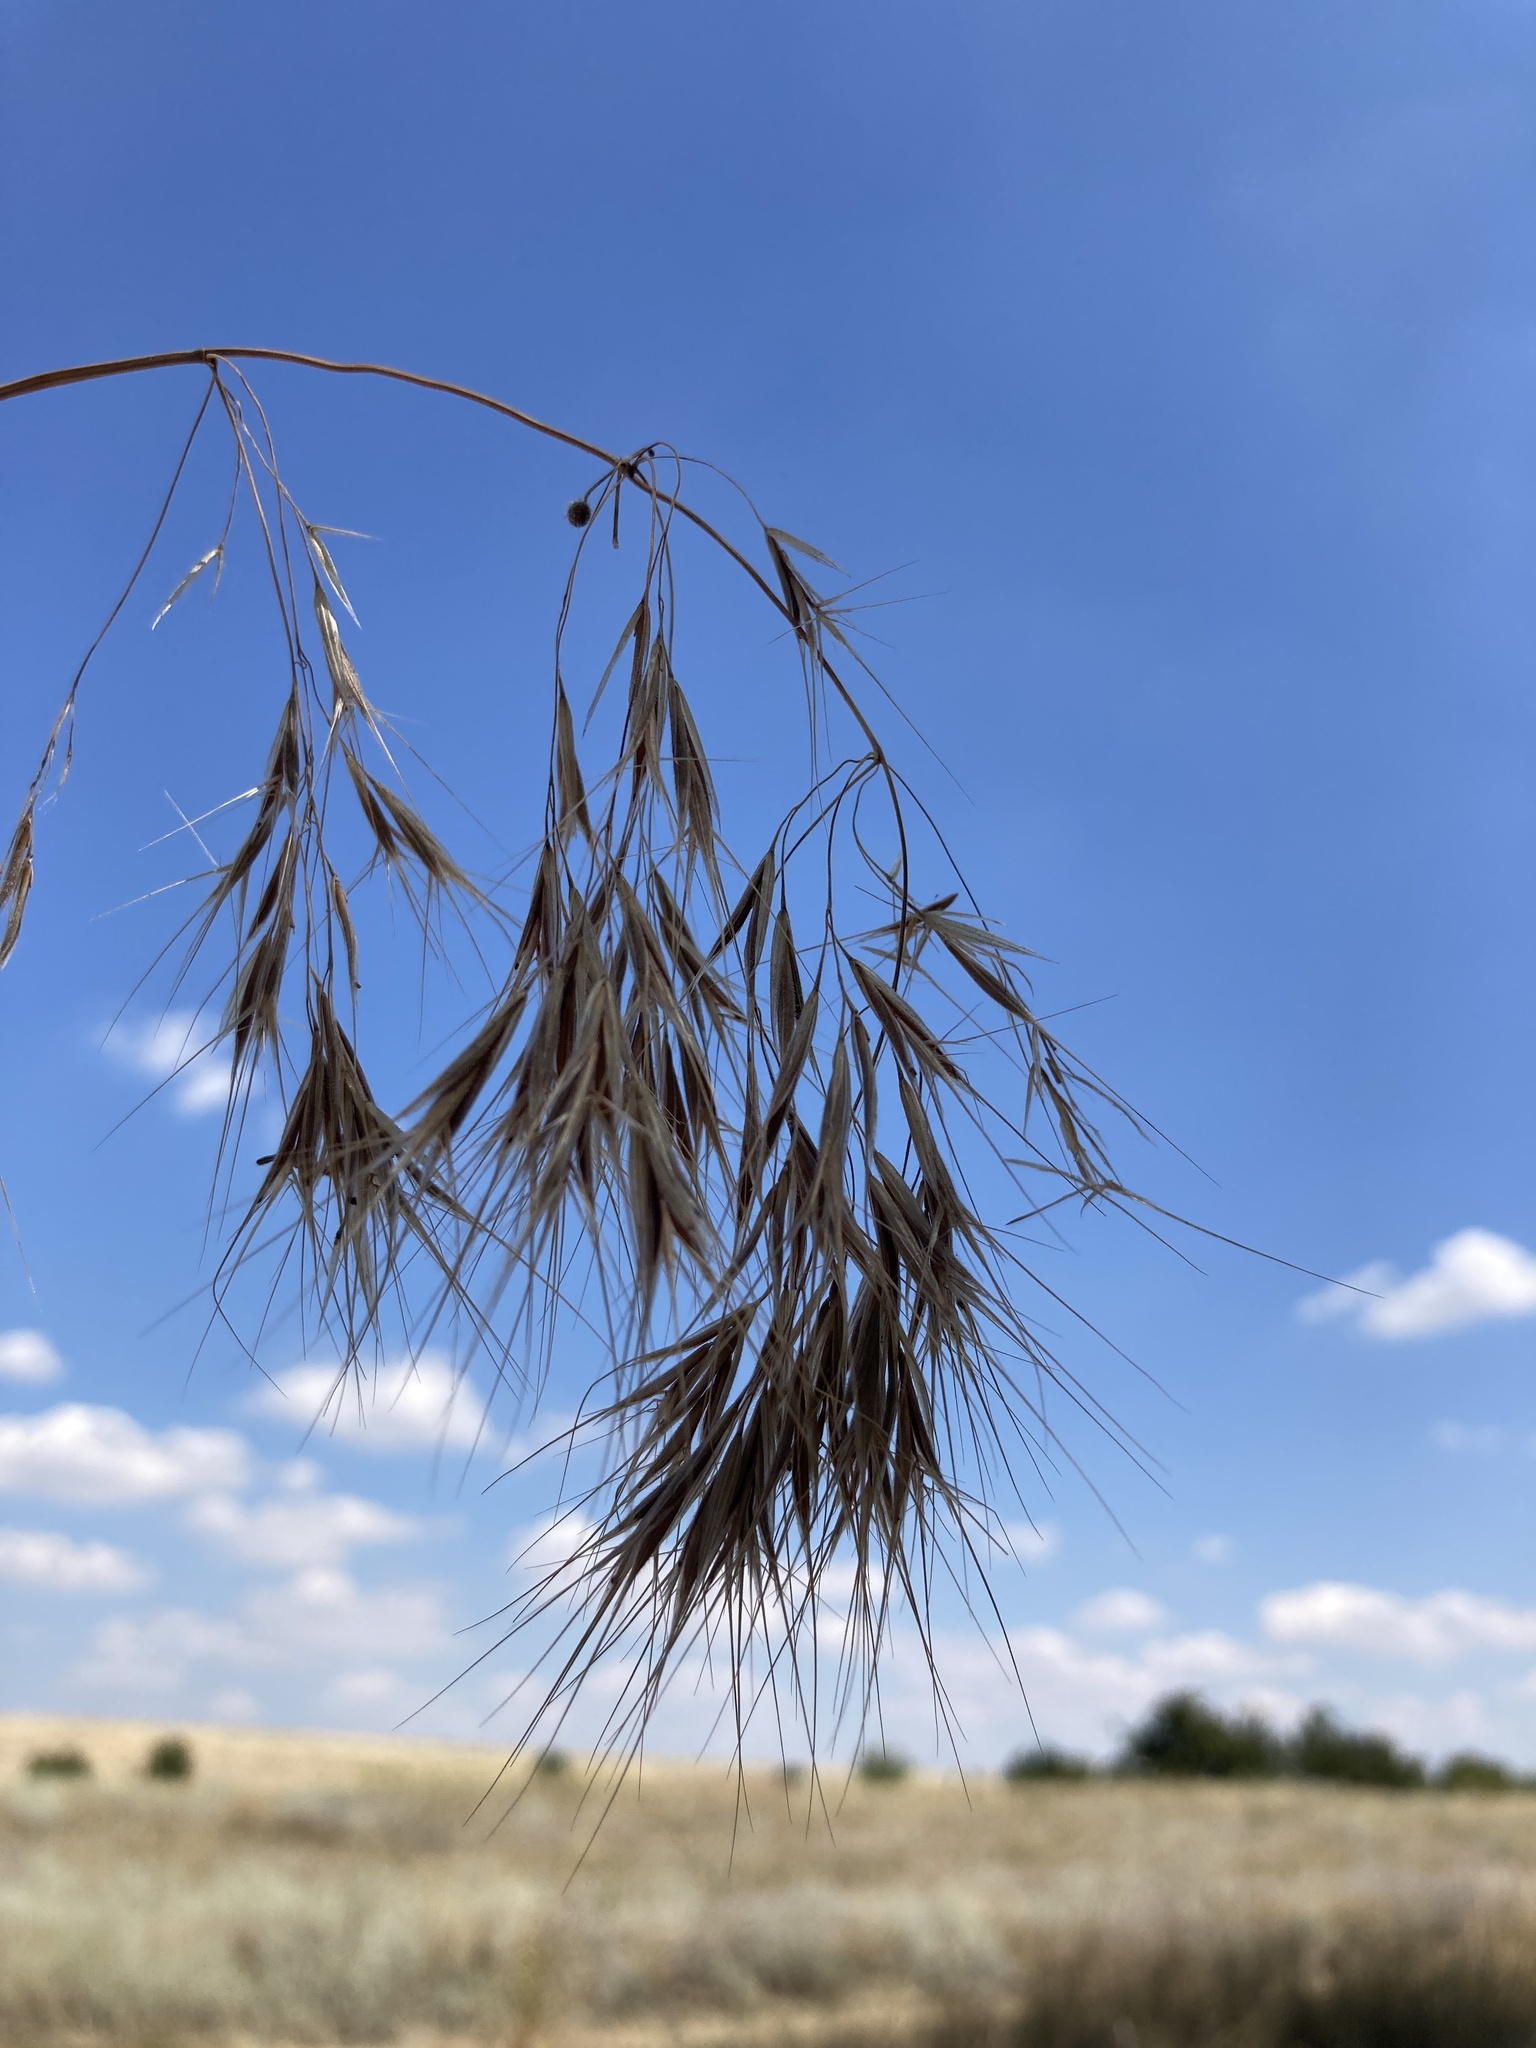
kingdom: Plantae
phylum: Tracheophyta
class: Liliopsida
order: Poales
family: Poaceae
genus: Bromus
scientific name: Bromus tectorum
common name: Cheatgrass
